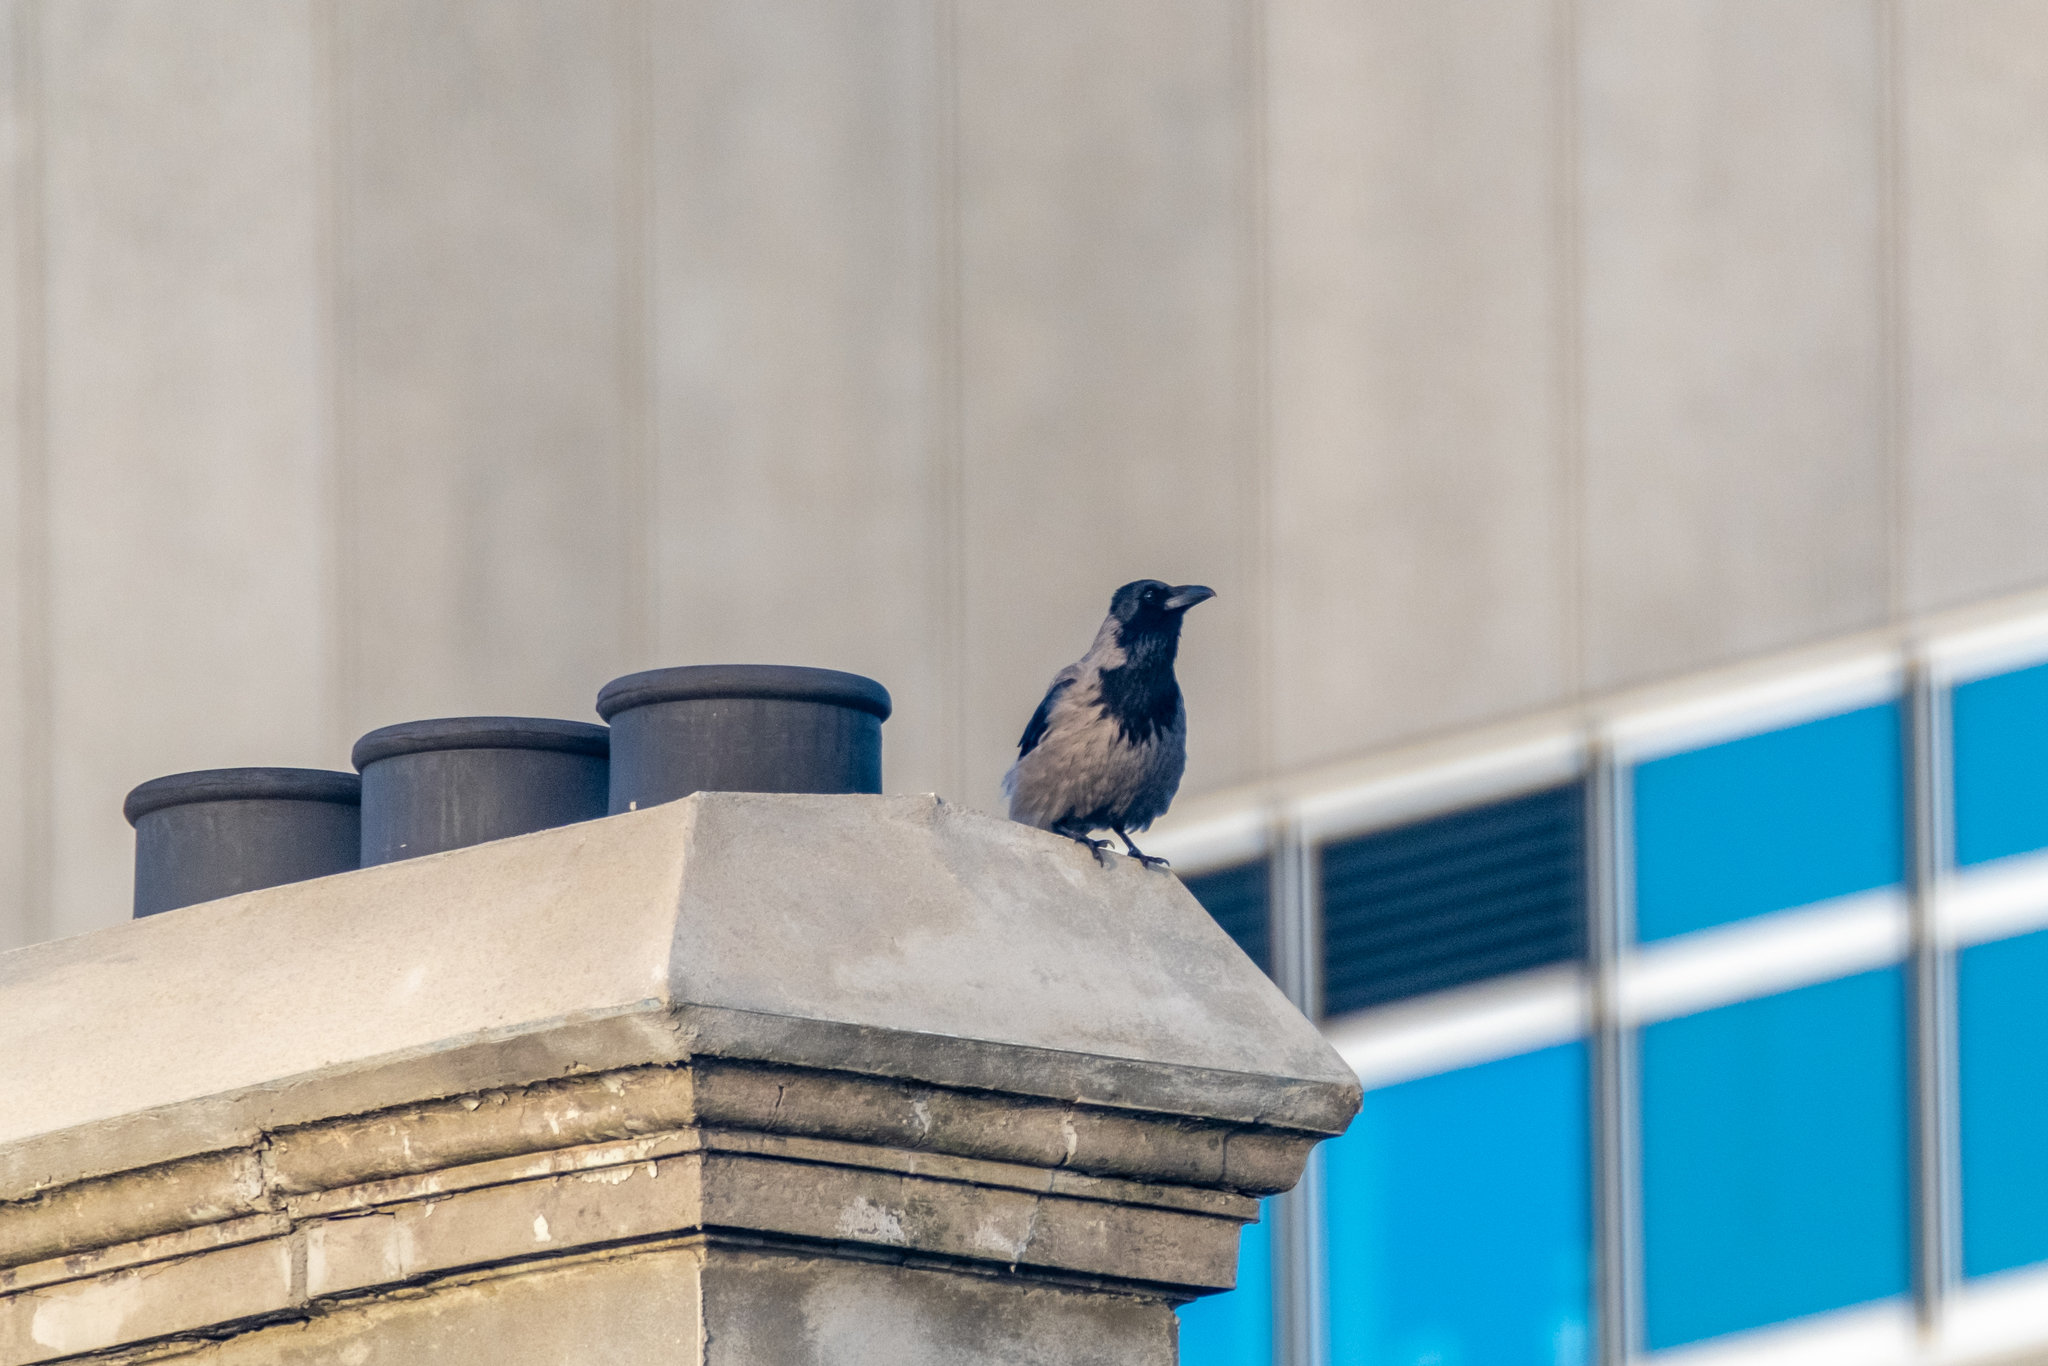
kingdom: Animalia
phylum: Chordata
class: Aves
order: Passeriformes
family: Corvidae
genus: Corvus
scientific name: Corvus cornix
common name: Hooded crow
